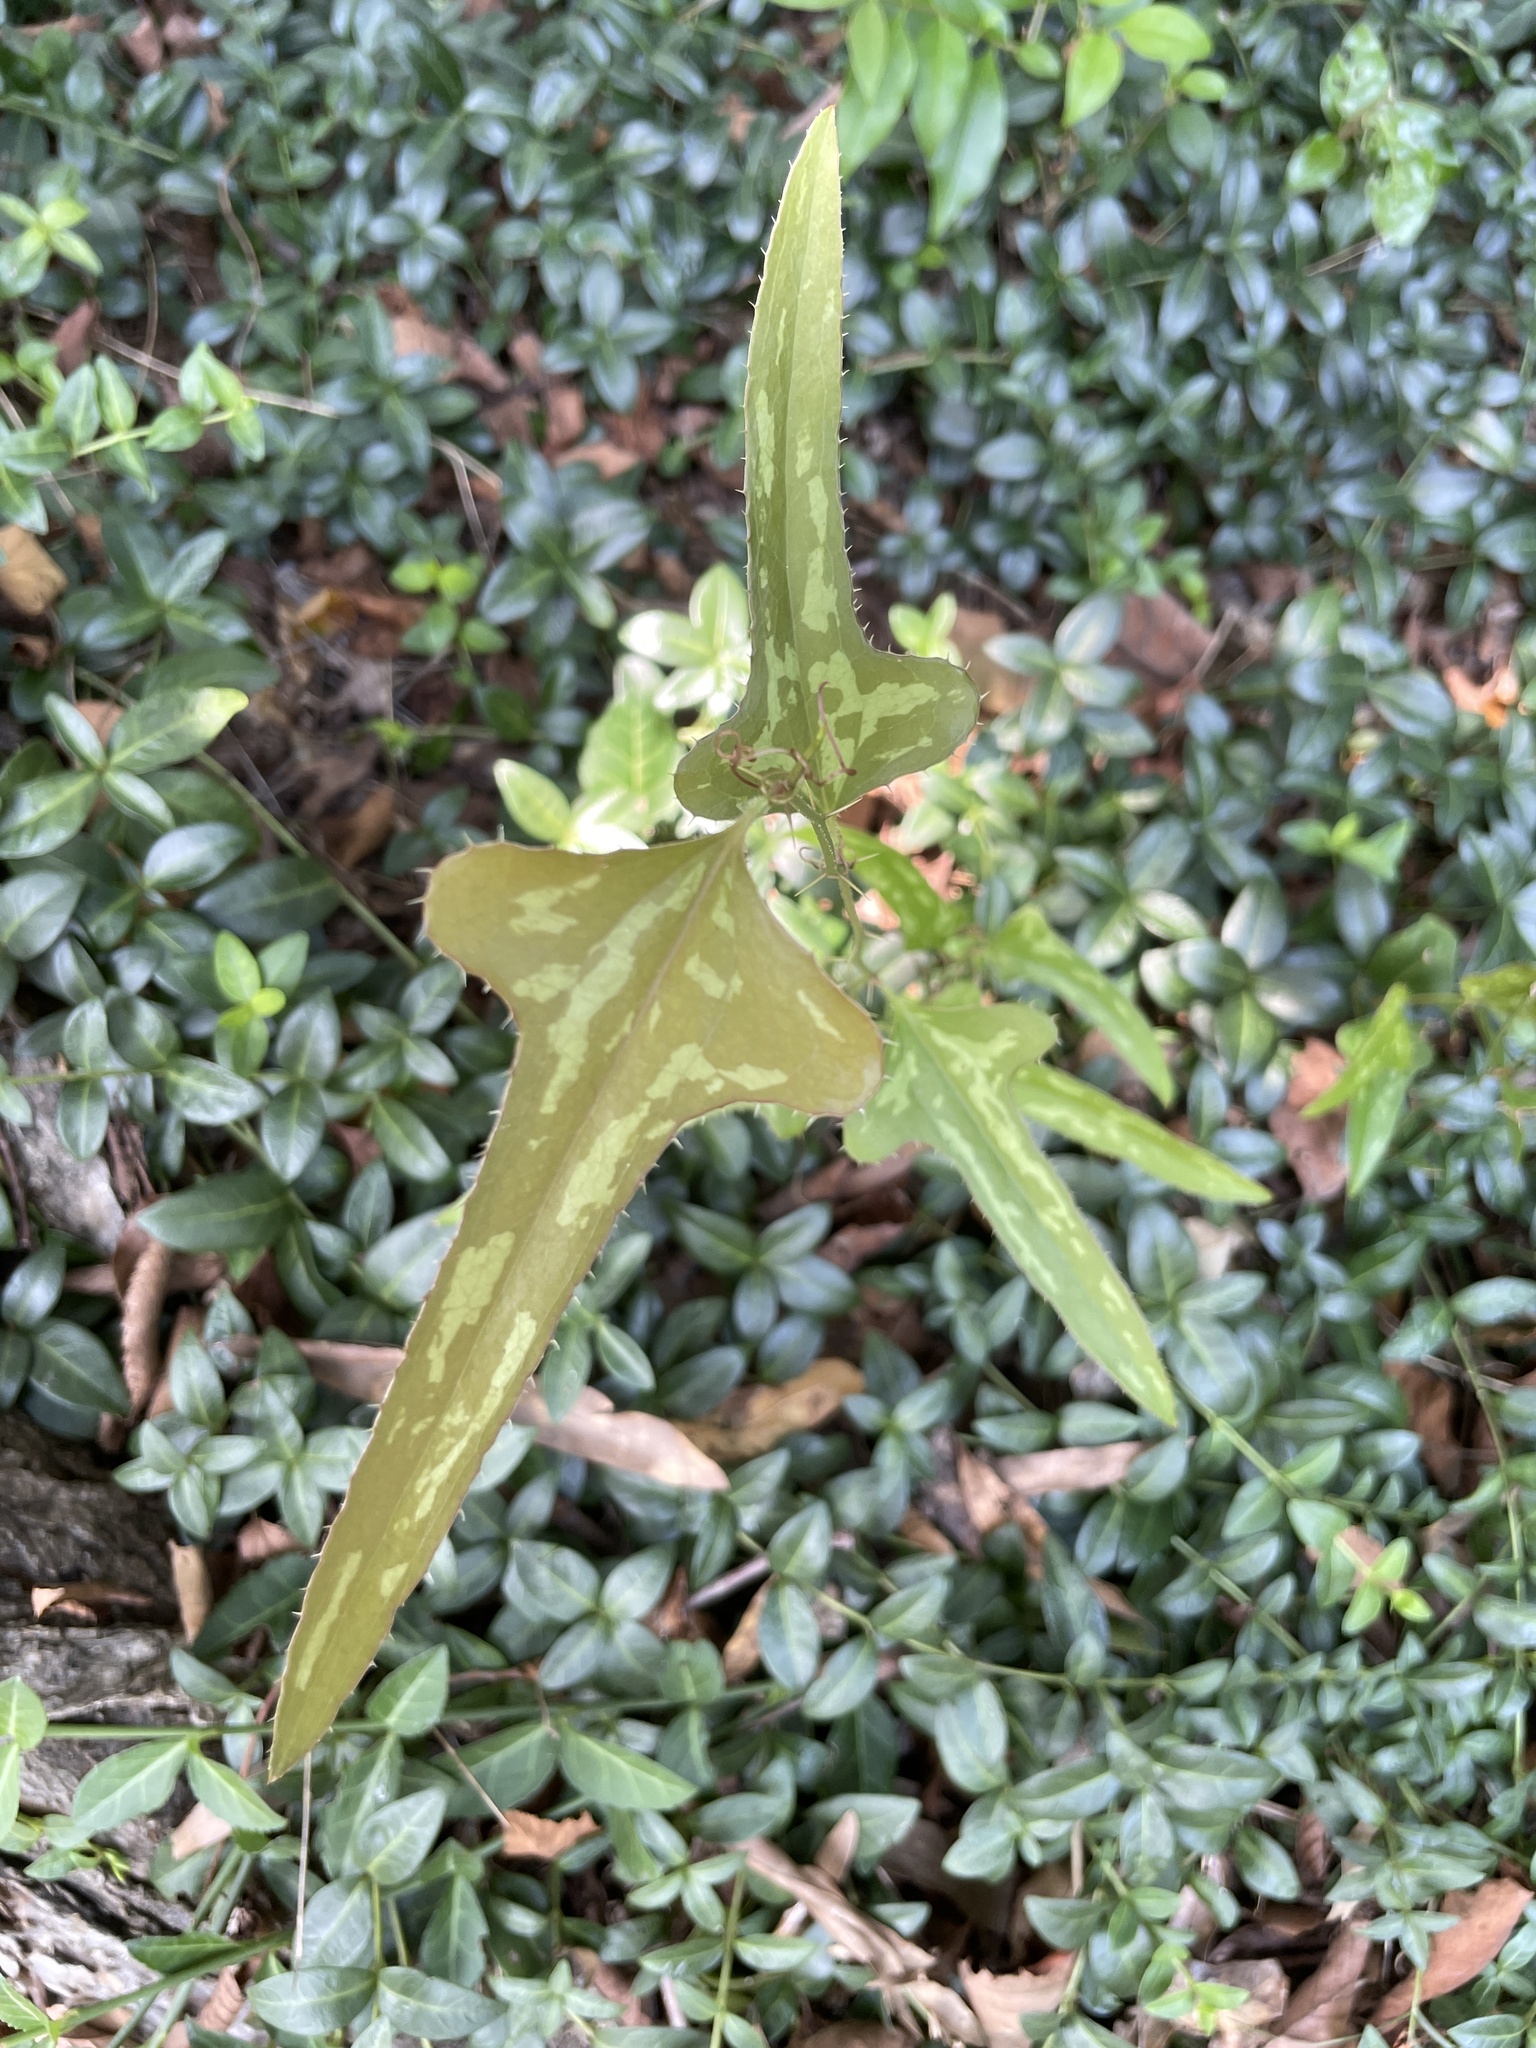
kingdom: Plantae
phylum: Tracheophyta
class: Liliopsida
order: Liliales
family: Smilacaceae
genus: Smilax
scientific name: Smilax bona-nox
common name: Catbrier
